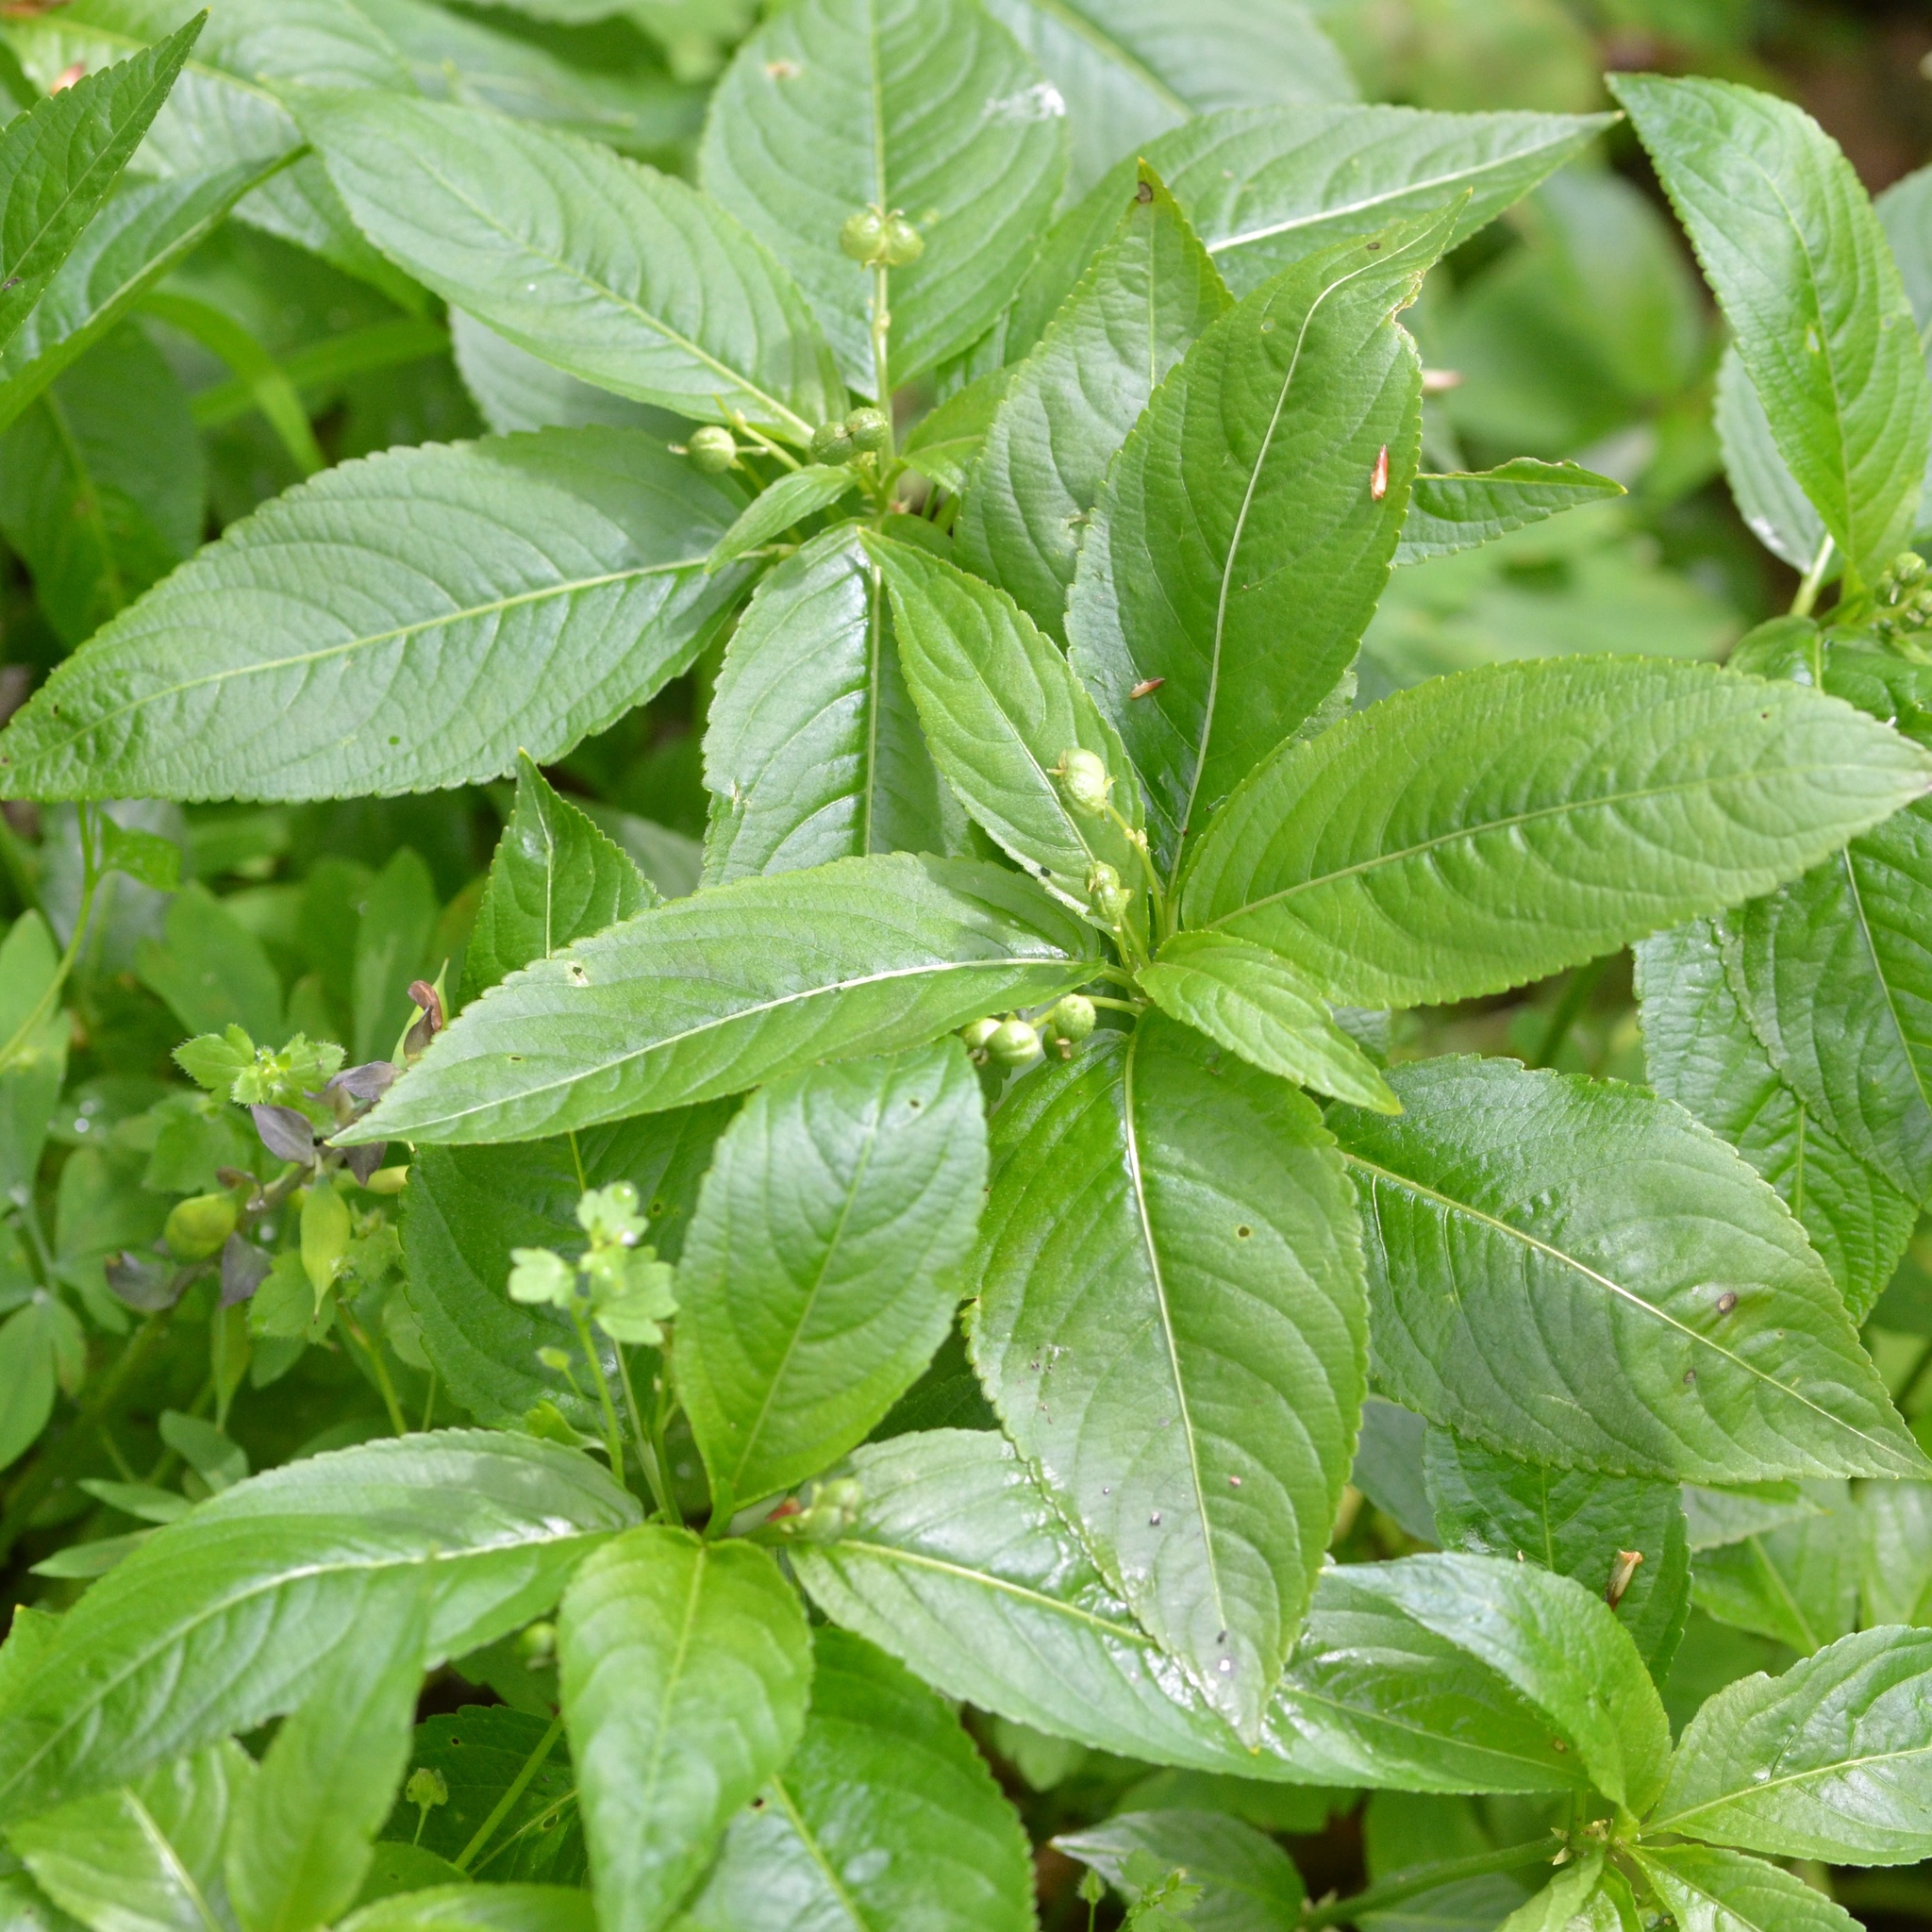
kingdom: Plantae
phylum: Tracheophyta
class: Magnoliopsida
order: Malpighiales
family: Euphorbiaceae
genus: Mercurialis
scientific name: Mercurialis perennis
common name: Dog mercury
